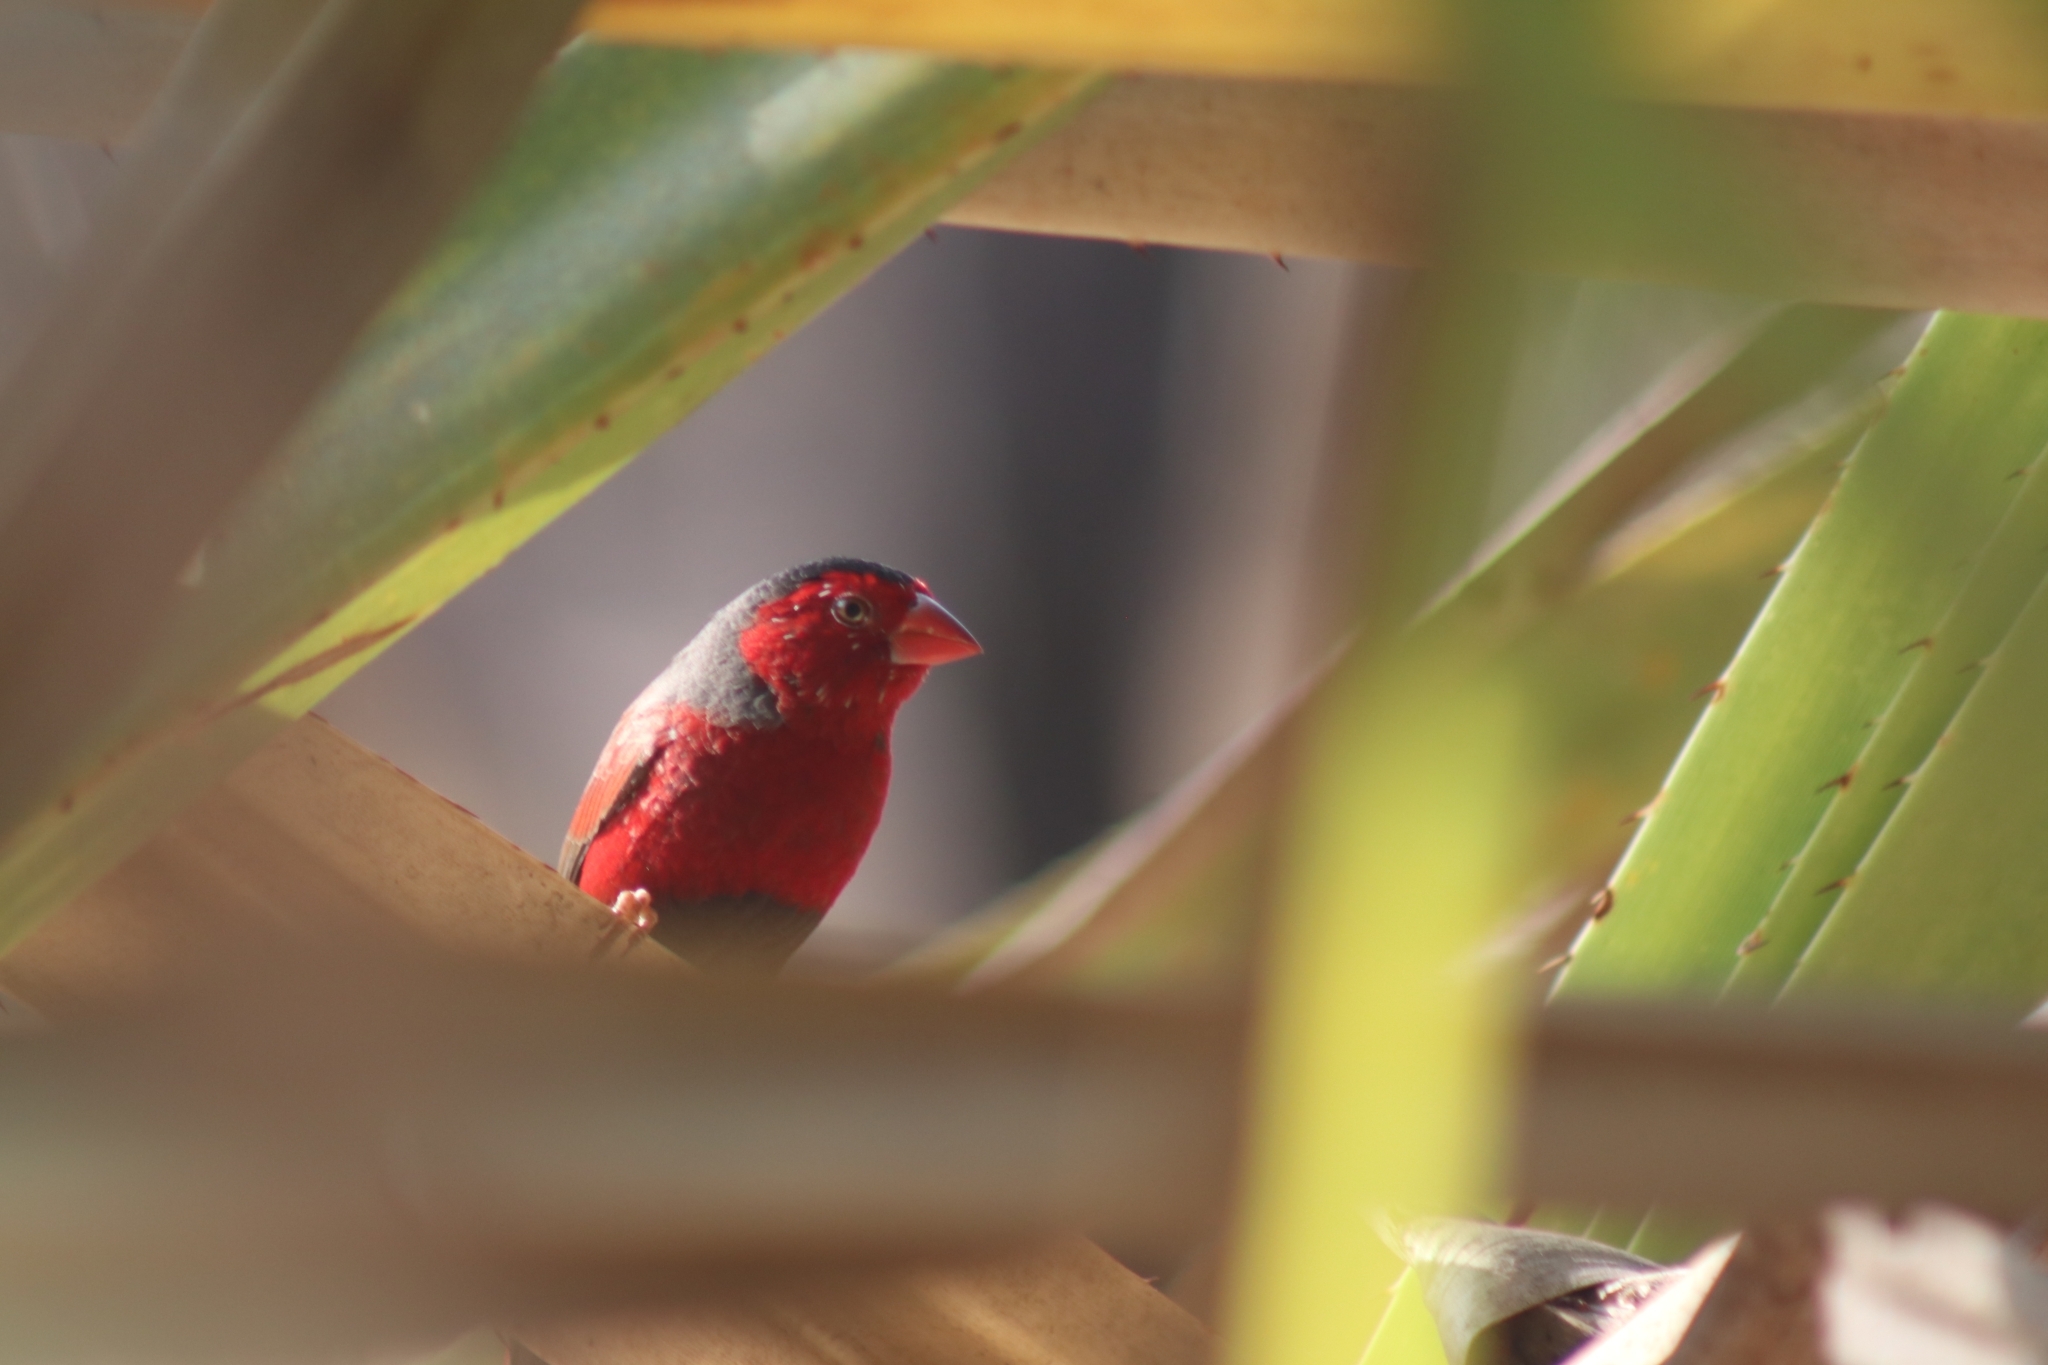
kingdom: Animalia
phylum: Chordata
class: Aves
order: Passeriformes
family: Estrildidae
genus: Neochmia
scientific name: Neochmia phaeton
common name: Crimson finch
